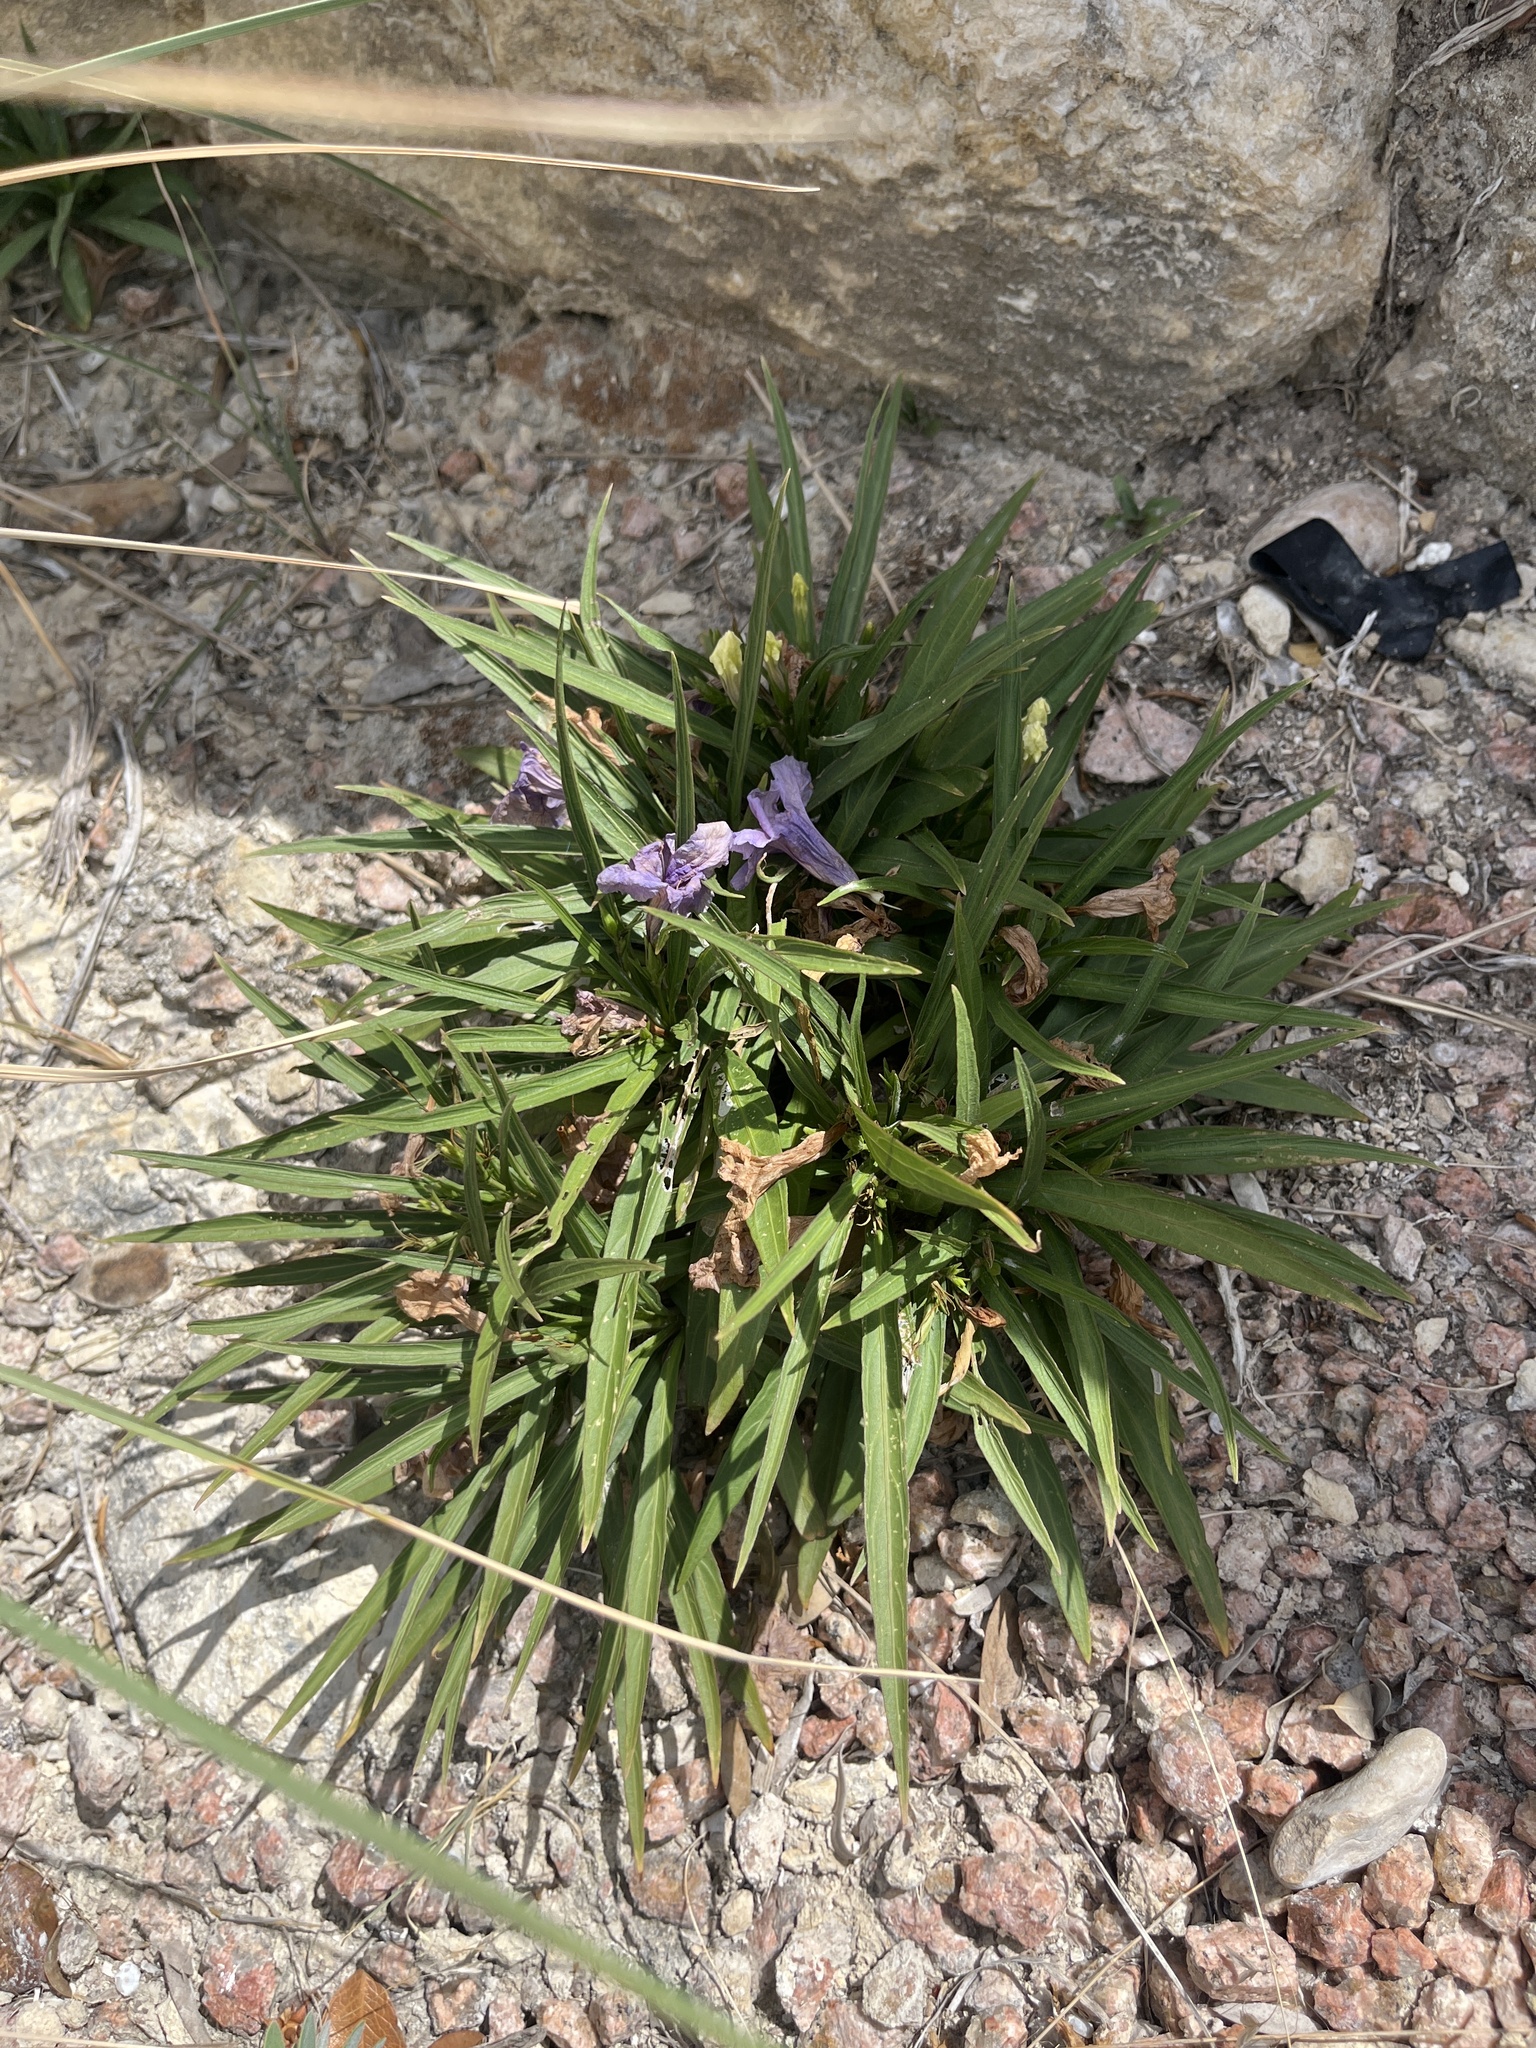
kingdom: Plantae
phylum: Tracheophyta
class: Magnoliopsida
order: Lamiales
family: Acanthaceae
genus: Ruellia
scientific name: Ruellia simplex
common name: Softseed wild petunia
